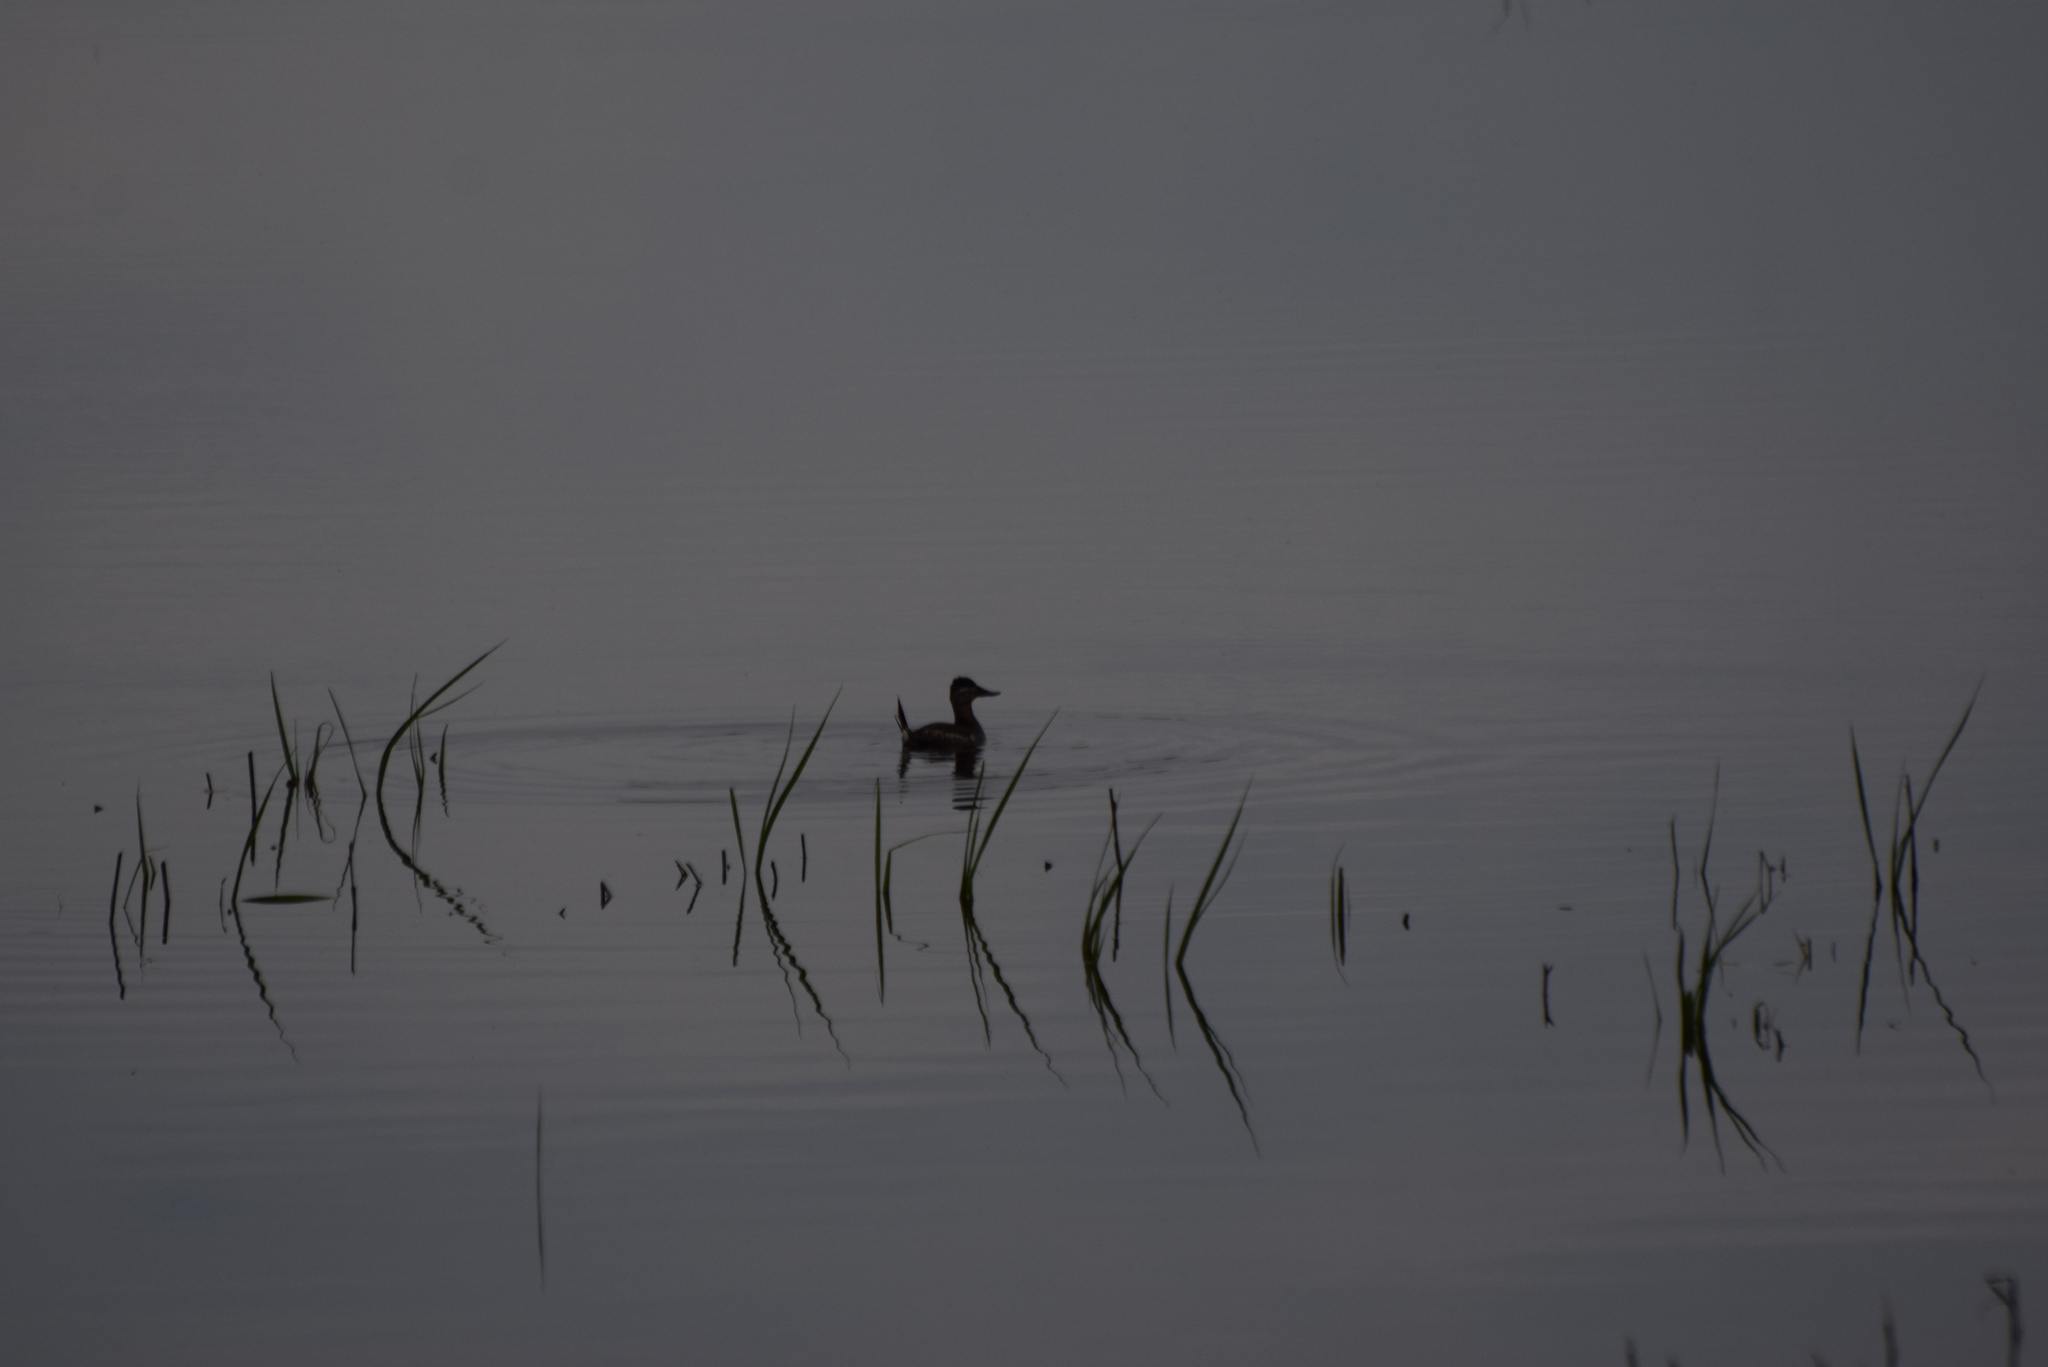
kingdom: Animalia
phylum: Chordata
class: Aves
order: Anseriformes
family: Anatidae
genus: Oxyura
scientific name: Oxyura jamaicensis
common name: Ruddy duck
